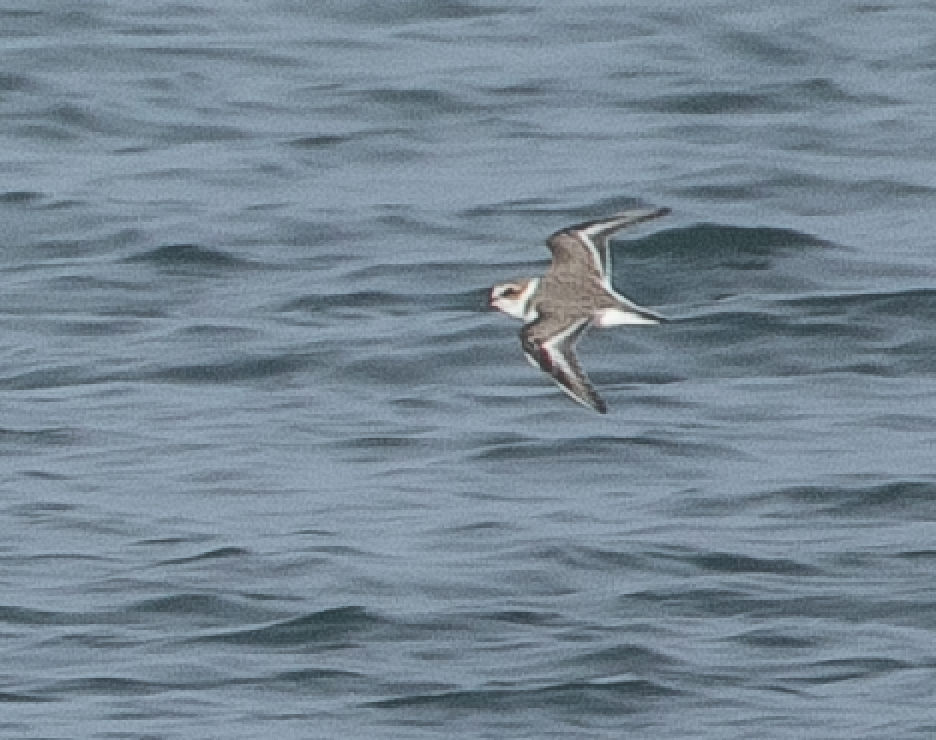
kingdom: Animalia
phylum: Chordata
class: Aves
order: Charadriiformes
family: Charadriidae
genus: Charadrius
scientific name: Charadrius alexandrinus
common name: Kentish plover
